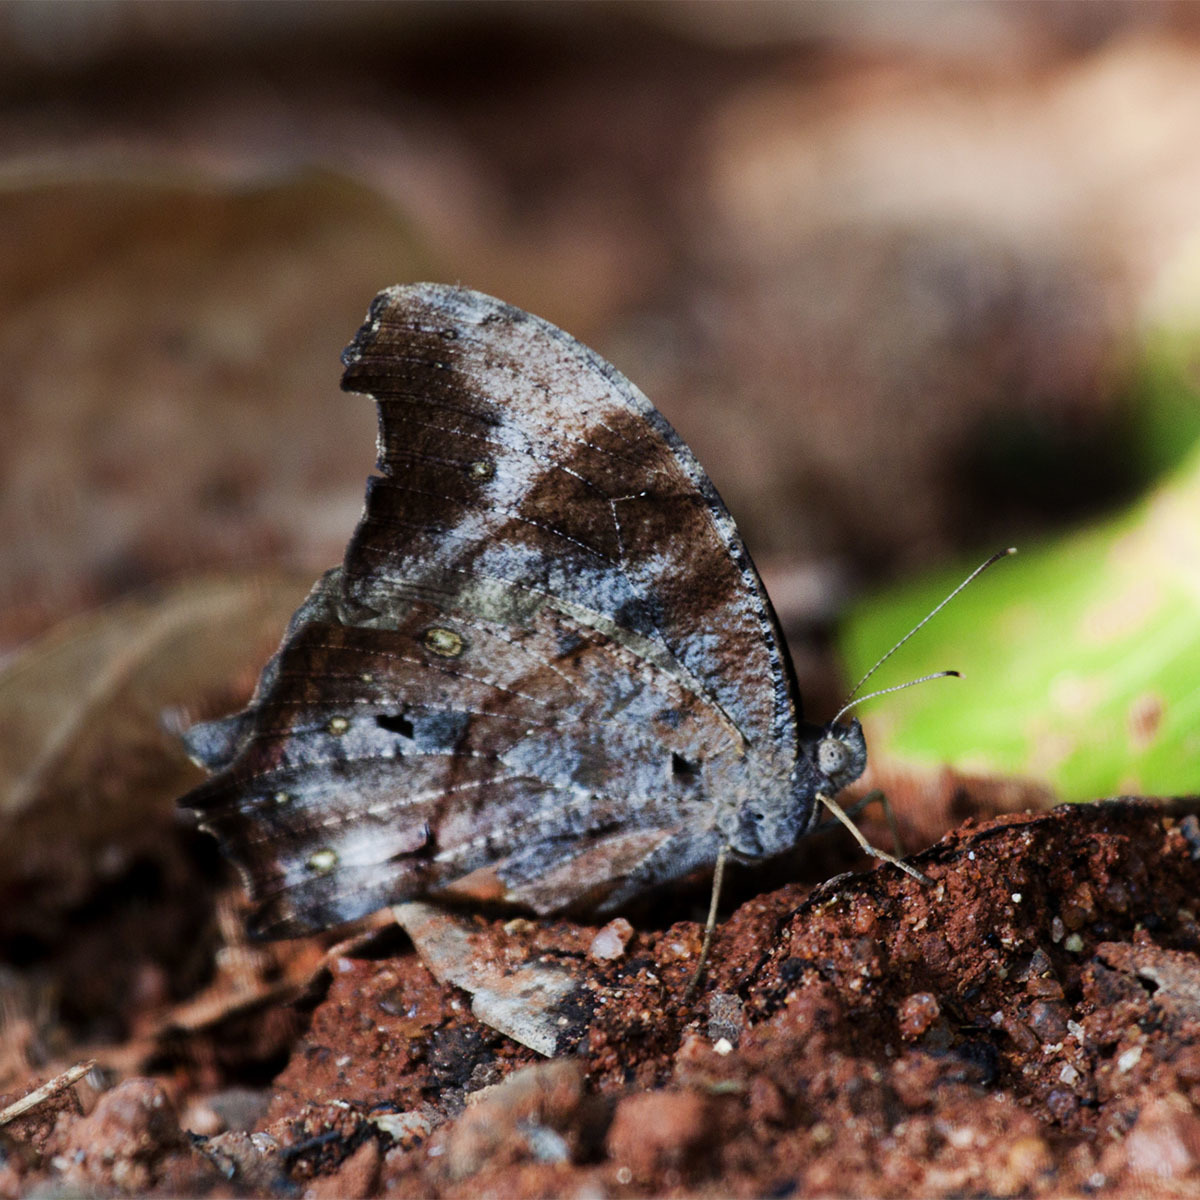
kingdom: Animalia
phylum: Arthropoda
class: Insecta
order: Lepidoptera
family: Nymphalidae
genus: Melanitis
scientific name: Melanitis leda
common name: Twilight brown
